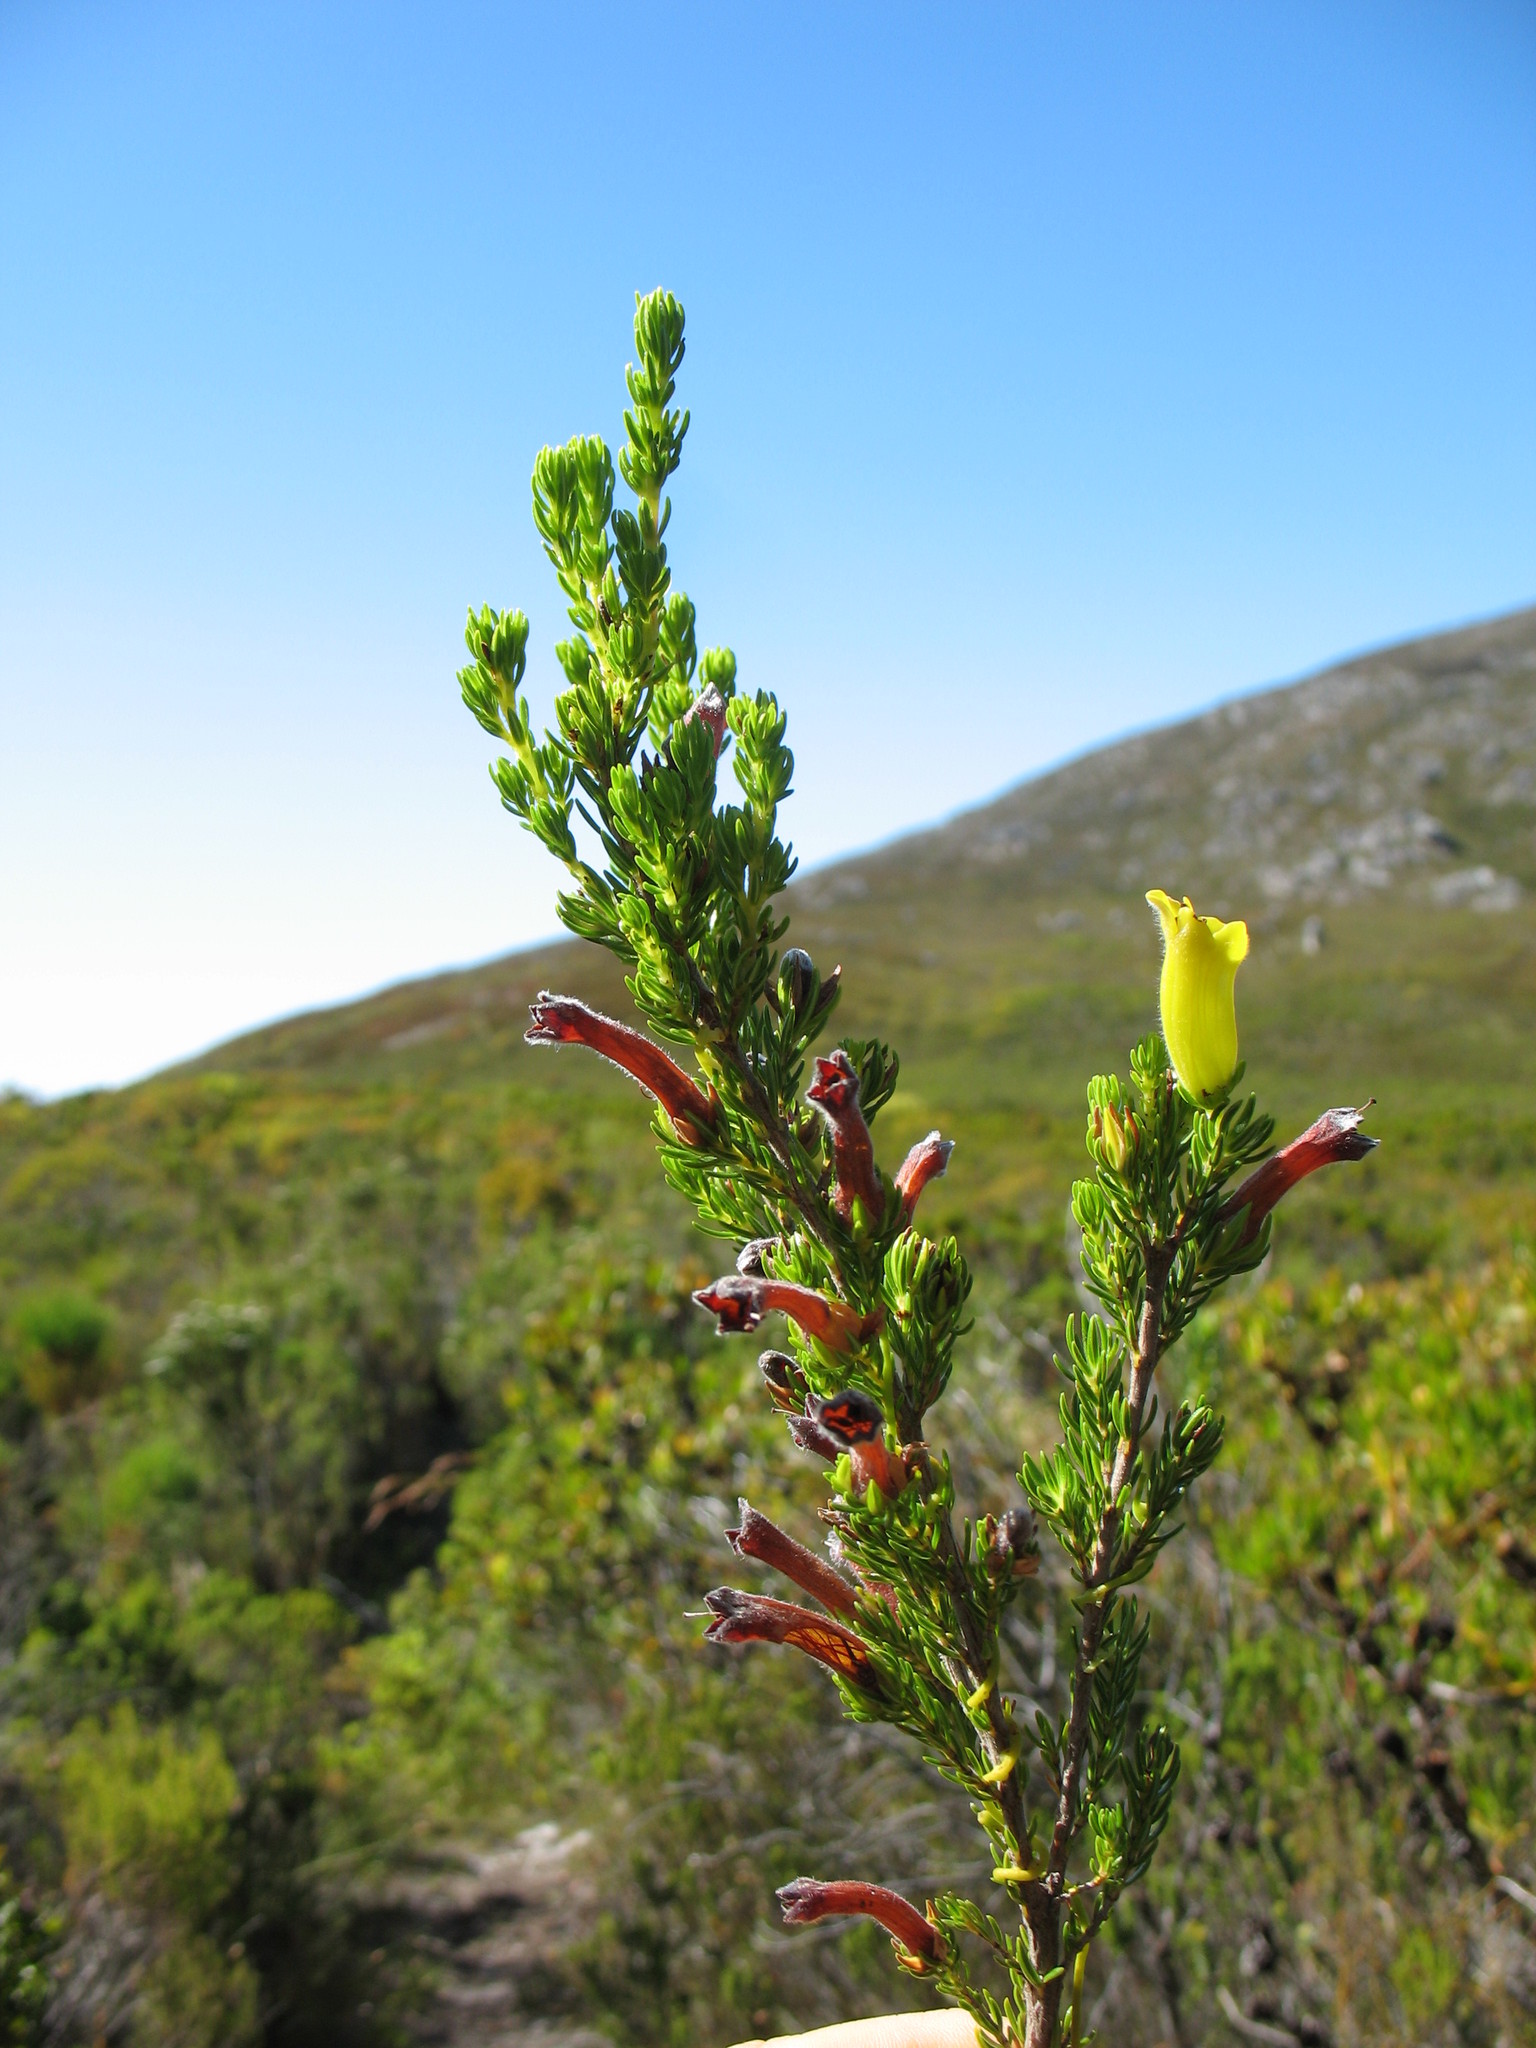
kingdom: Plantae
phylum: Tracheophyta
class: Magnoliopsida
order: Ericales
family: Ericaceae
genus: Erica
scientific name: Erica macowanii
